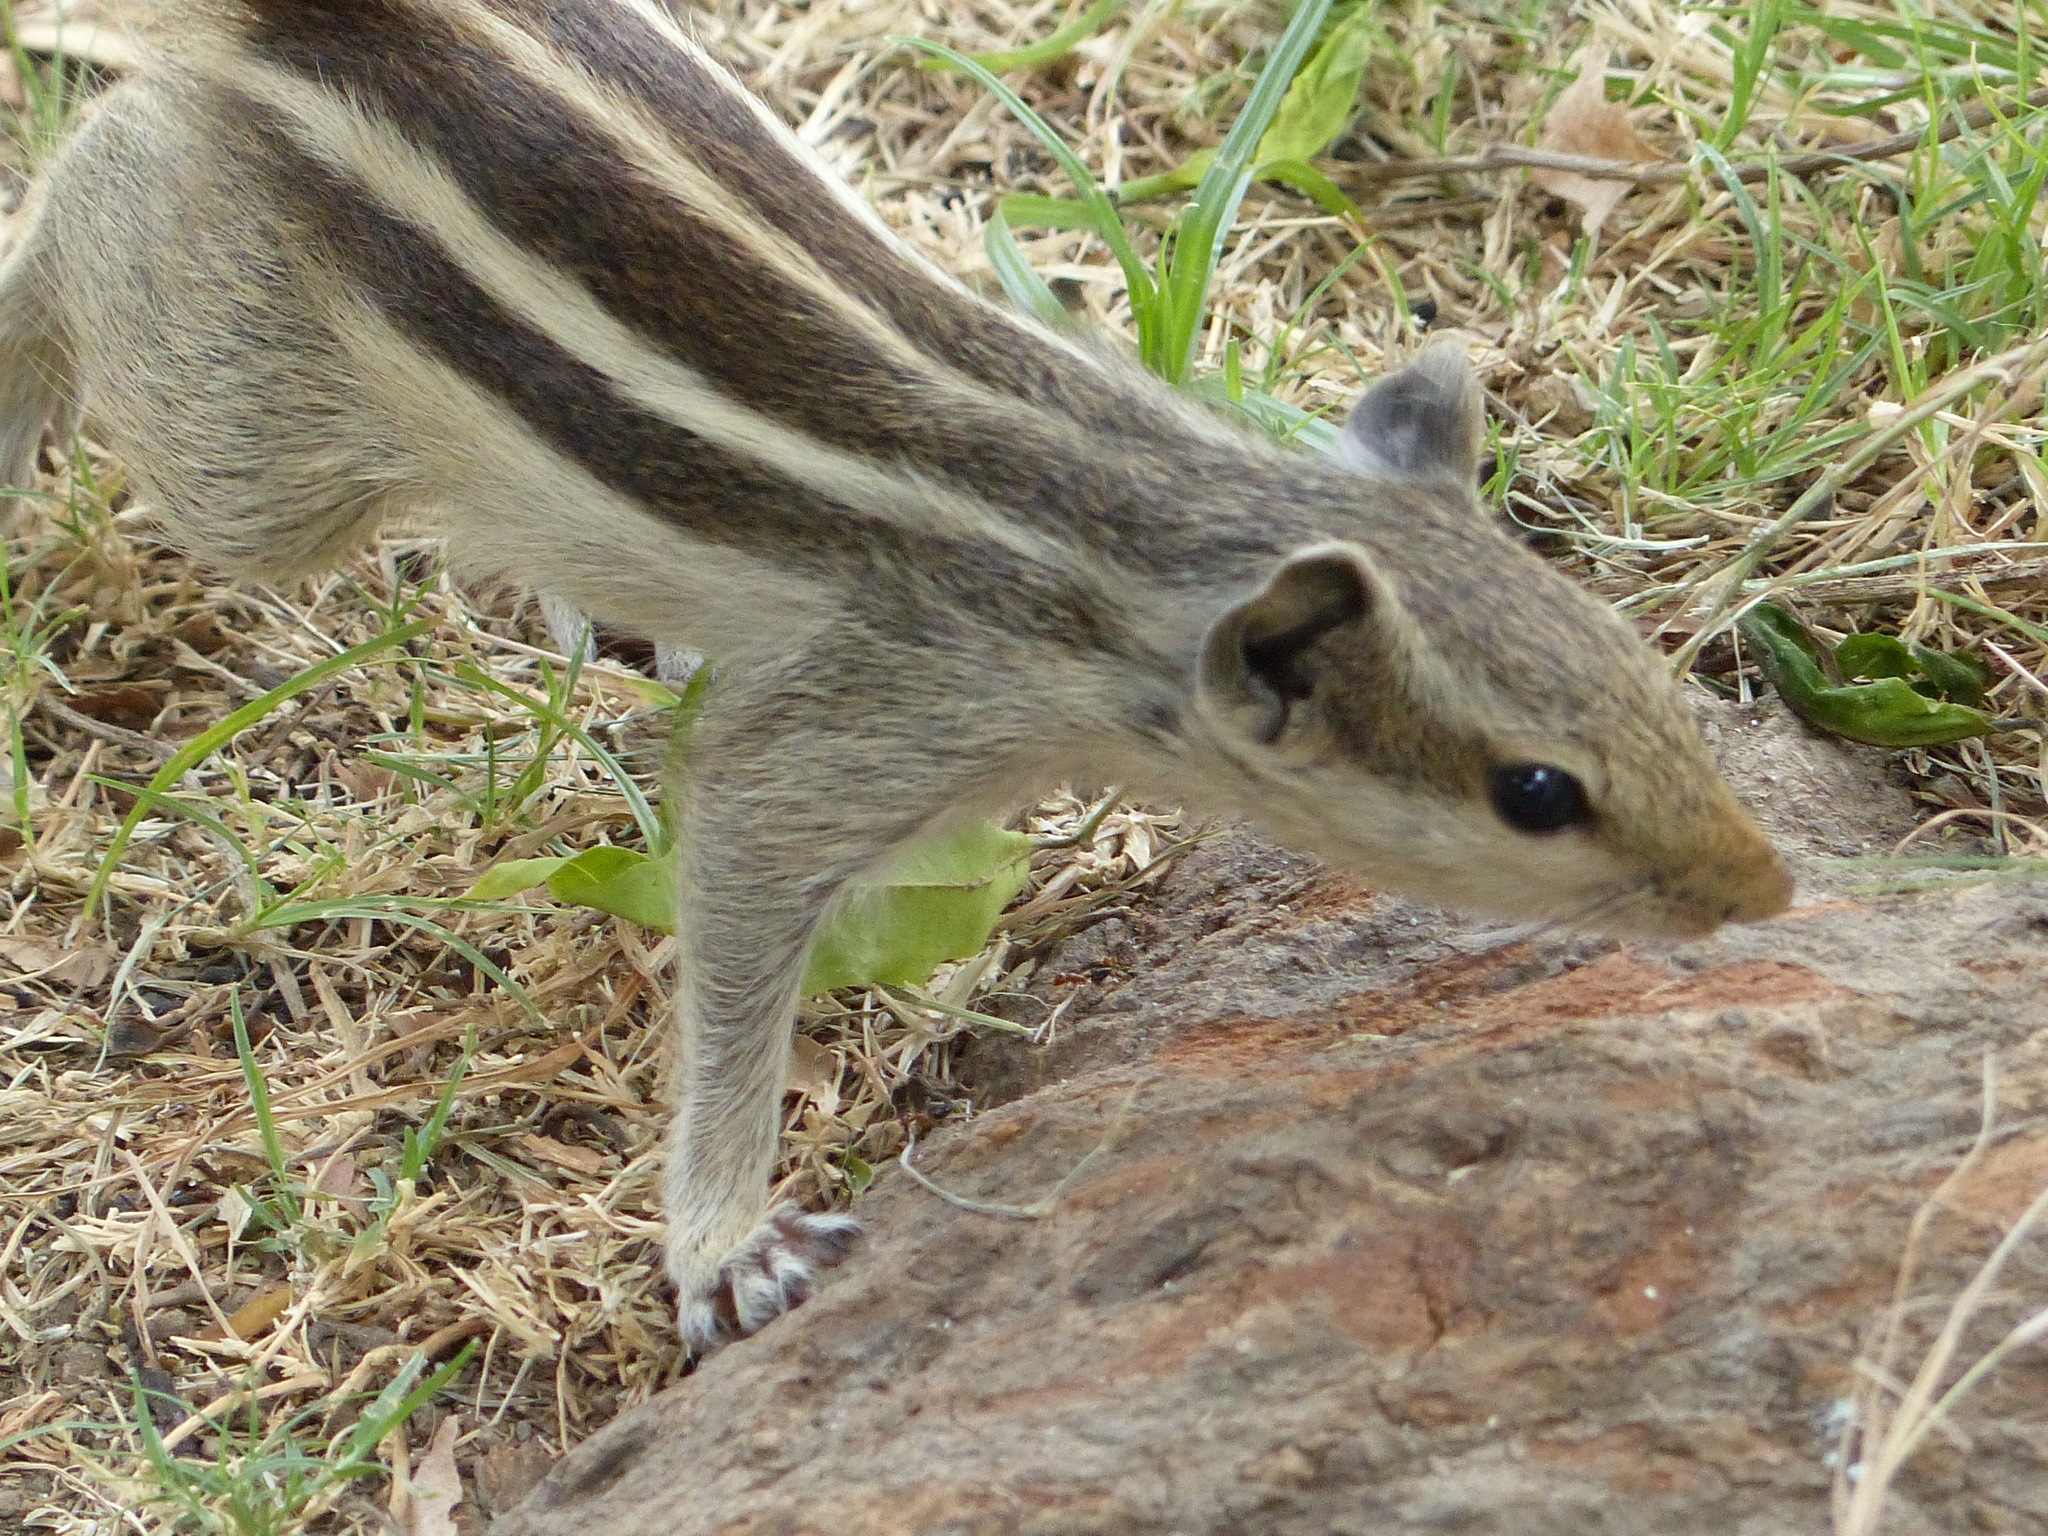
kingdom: Animalia
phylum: Chordata
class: Mammalia
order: Rodentia
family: Sciuridae
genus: Funambulus
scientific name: Funambulus pennantii
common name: Northern palm squirrel
